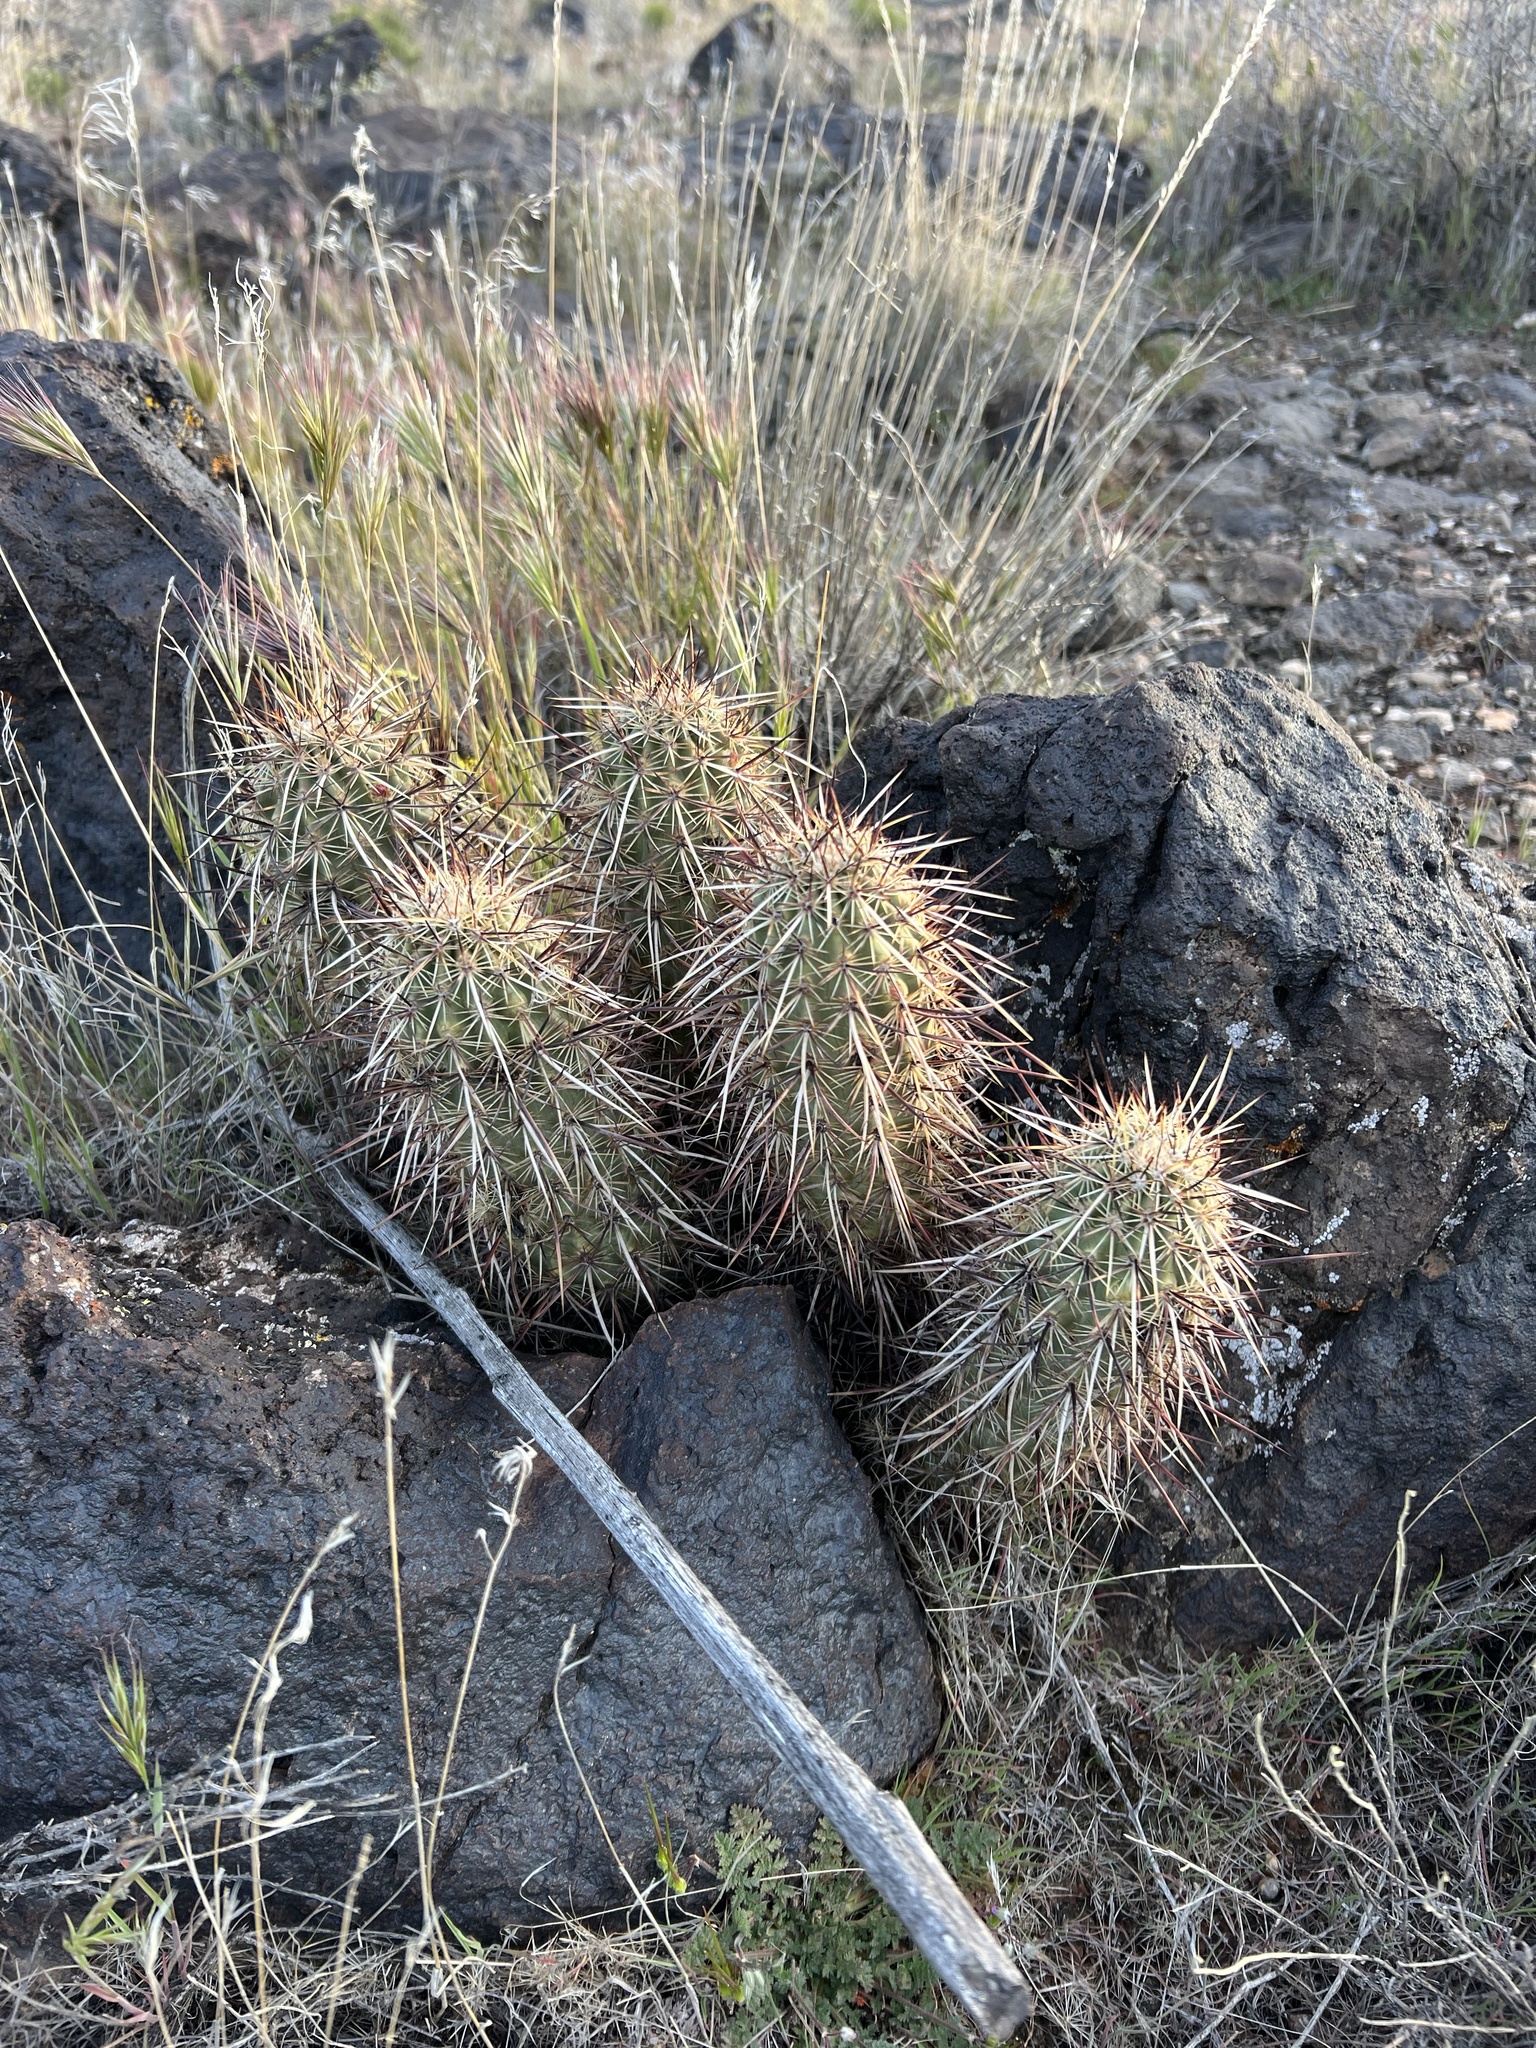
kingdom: Plantae
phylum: Tracheophyta
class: Magnoliopsida
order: Caryophyllales
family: Cactaceae
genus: Echinocereus
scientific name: Echinocereus relictus
